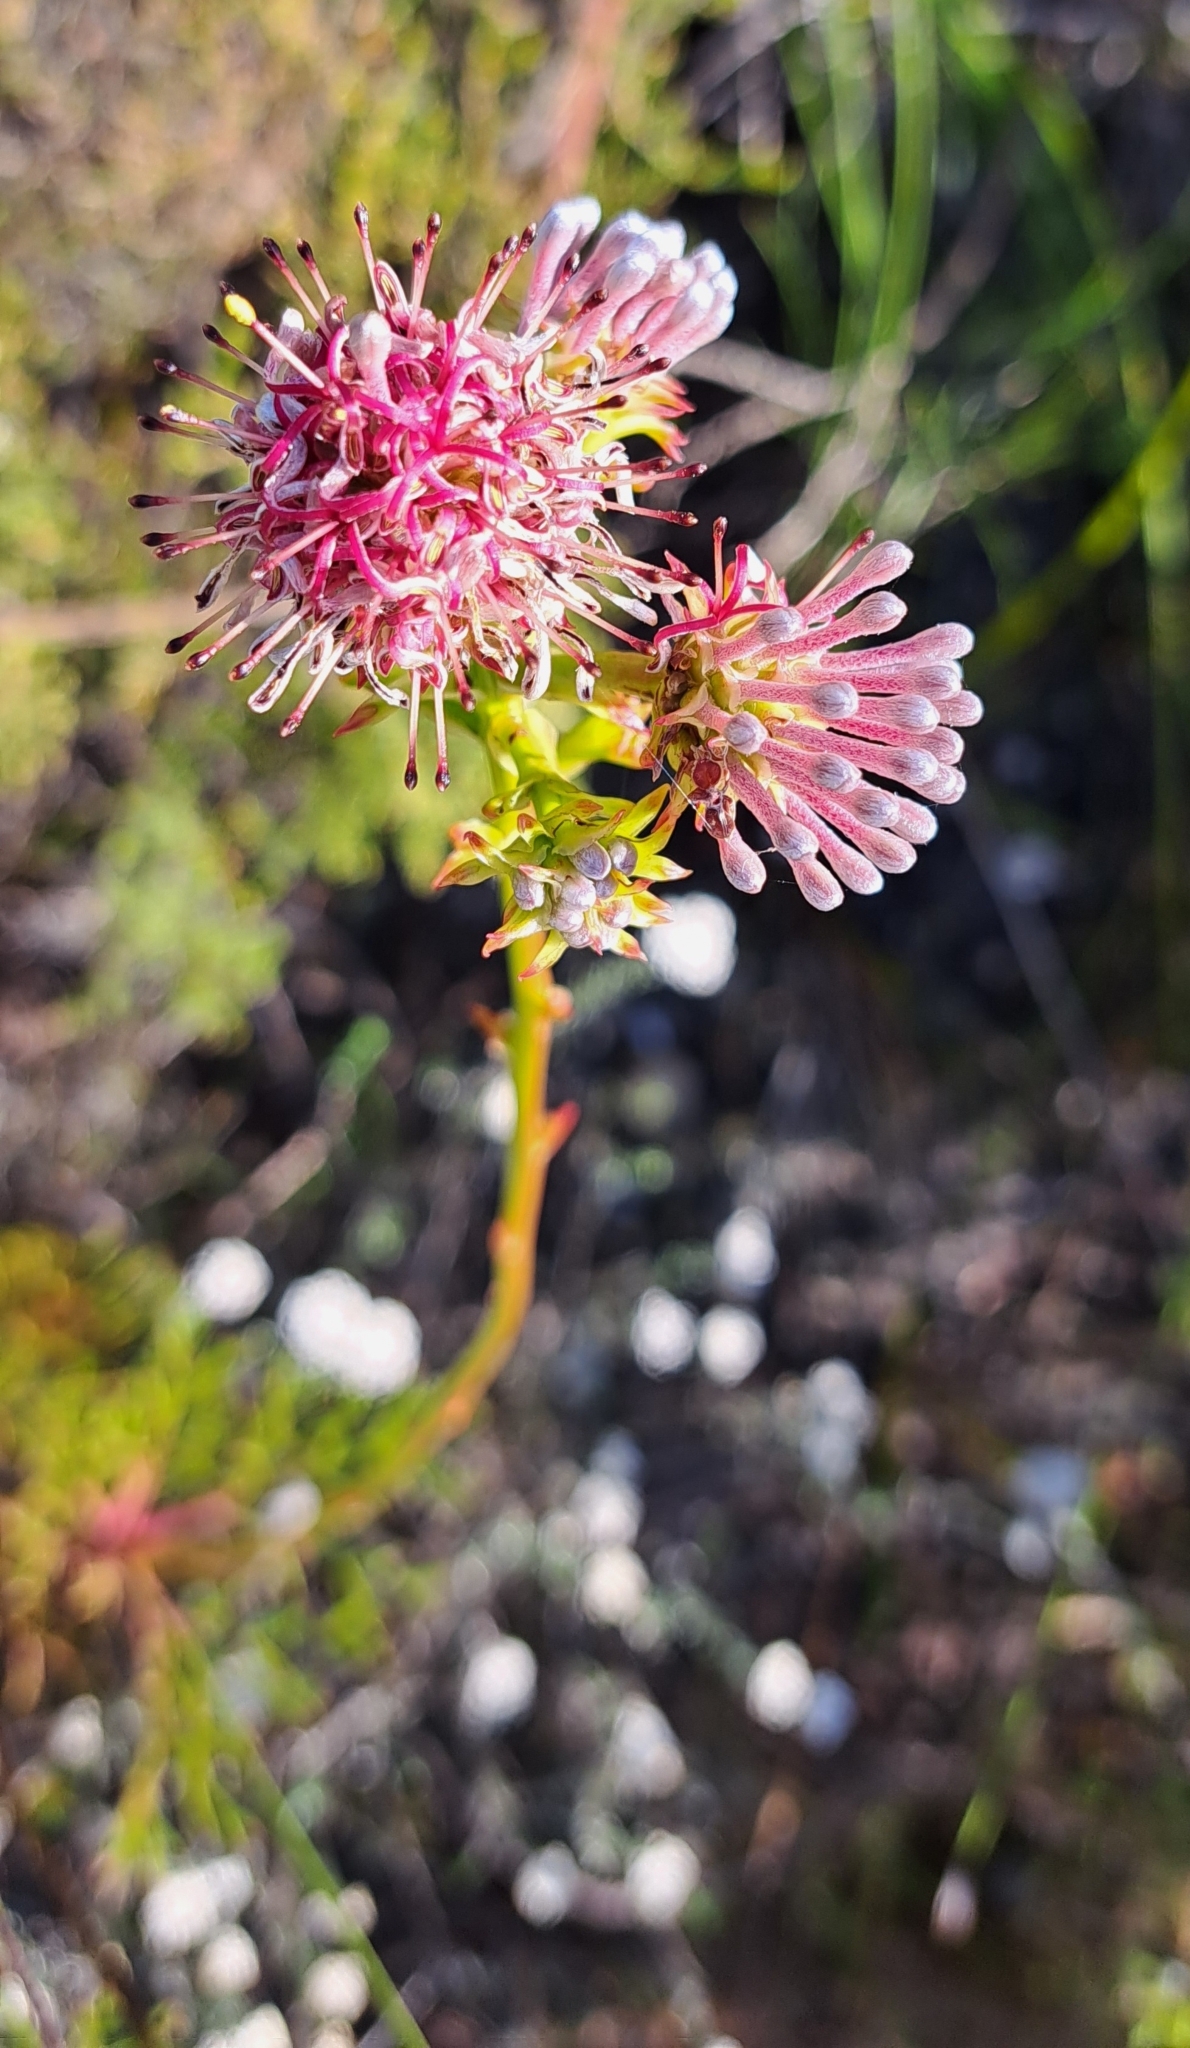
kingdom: Plantae
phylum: Tracheophyta
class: Magnoliopsida
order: Proteales
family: Proteaceae
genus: Serruria
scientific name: Serruria elongata
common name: Long-stalk spiderhead
